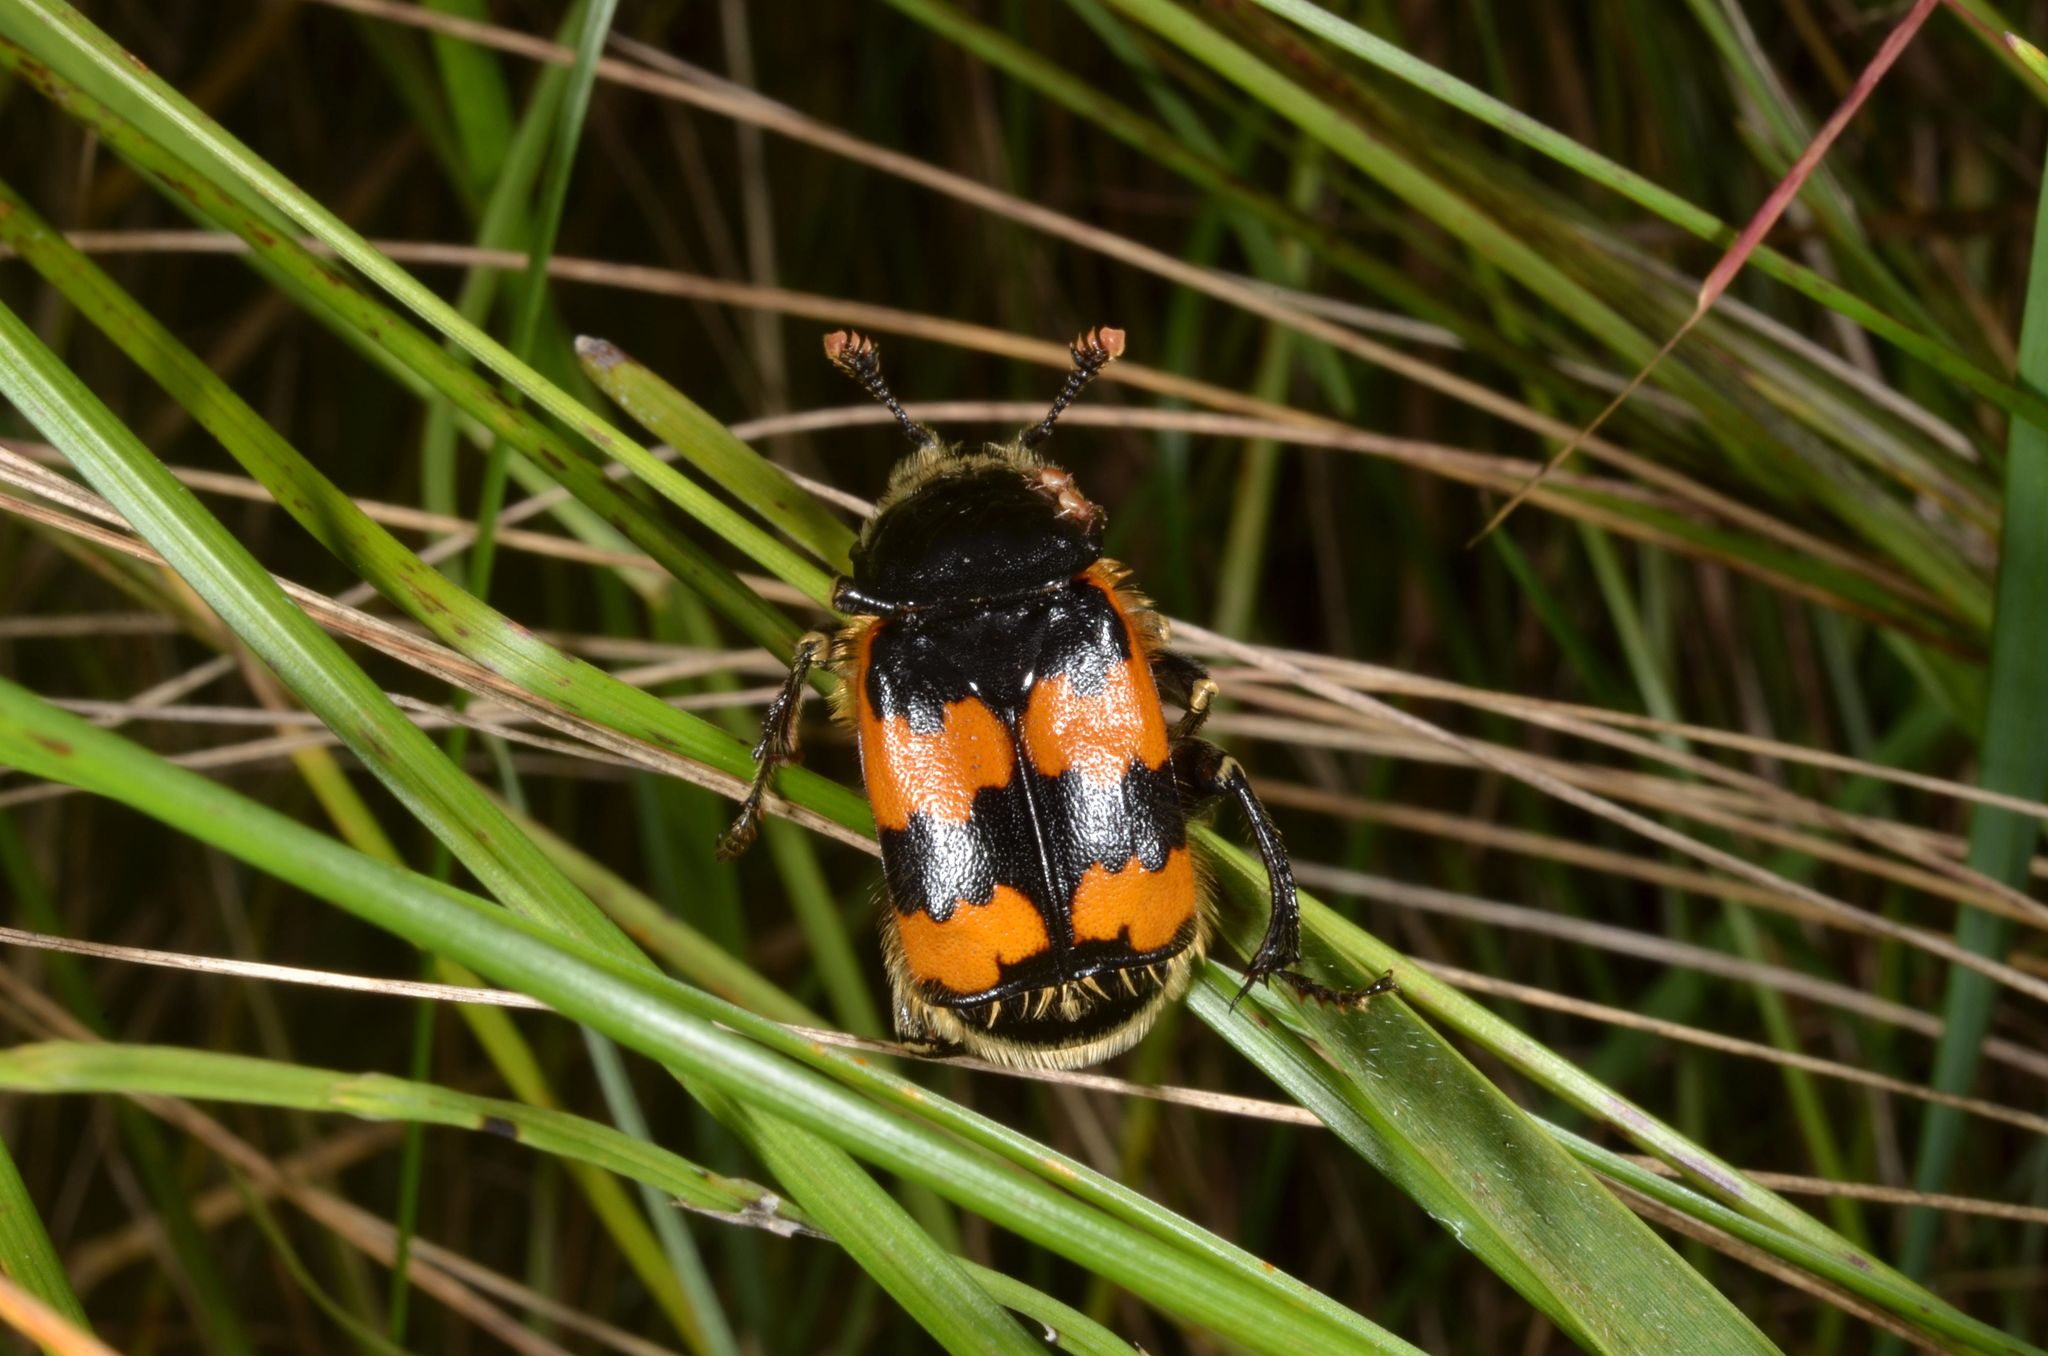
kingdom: Animalia
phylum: Arthropoda
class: Insecta
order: Coleoptera
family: Staphylinidae
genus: Nicrophorus
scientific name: Nicrophorus vespillo
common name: Common burying beetle
